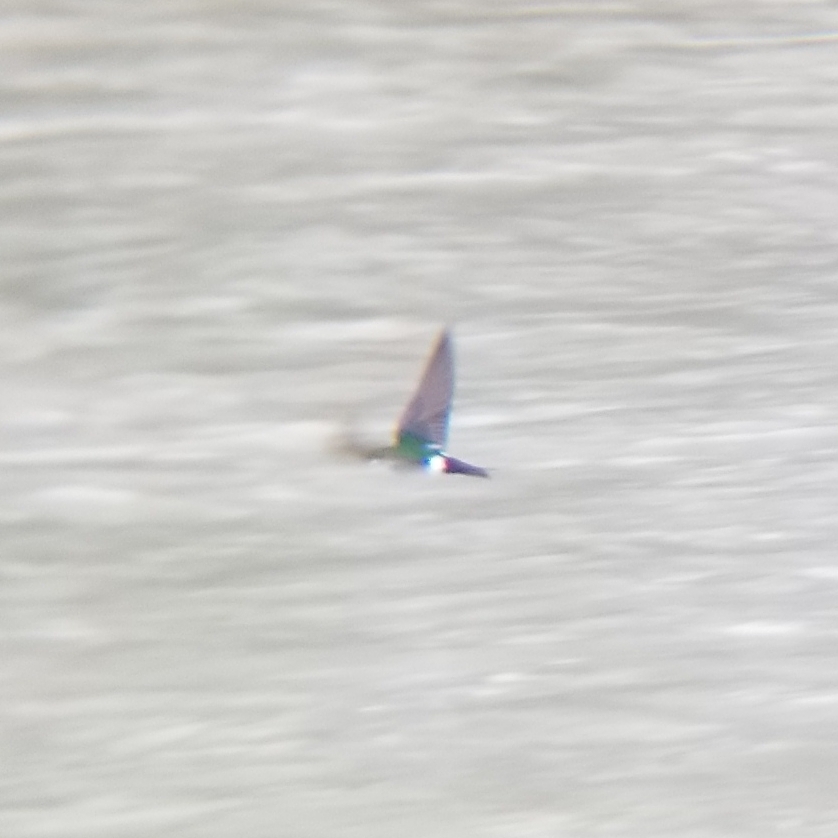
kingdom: Animalia
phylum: Chordata
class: Aves
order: Passeriformes
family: Hirundinidae
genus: Tachycineta
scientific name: Tachycineta thalassina
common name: Violet-green swallow
